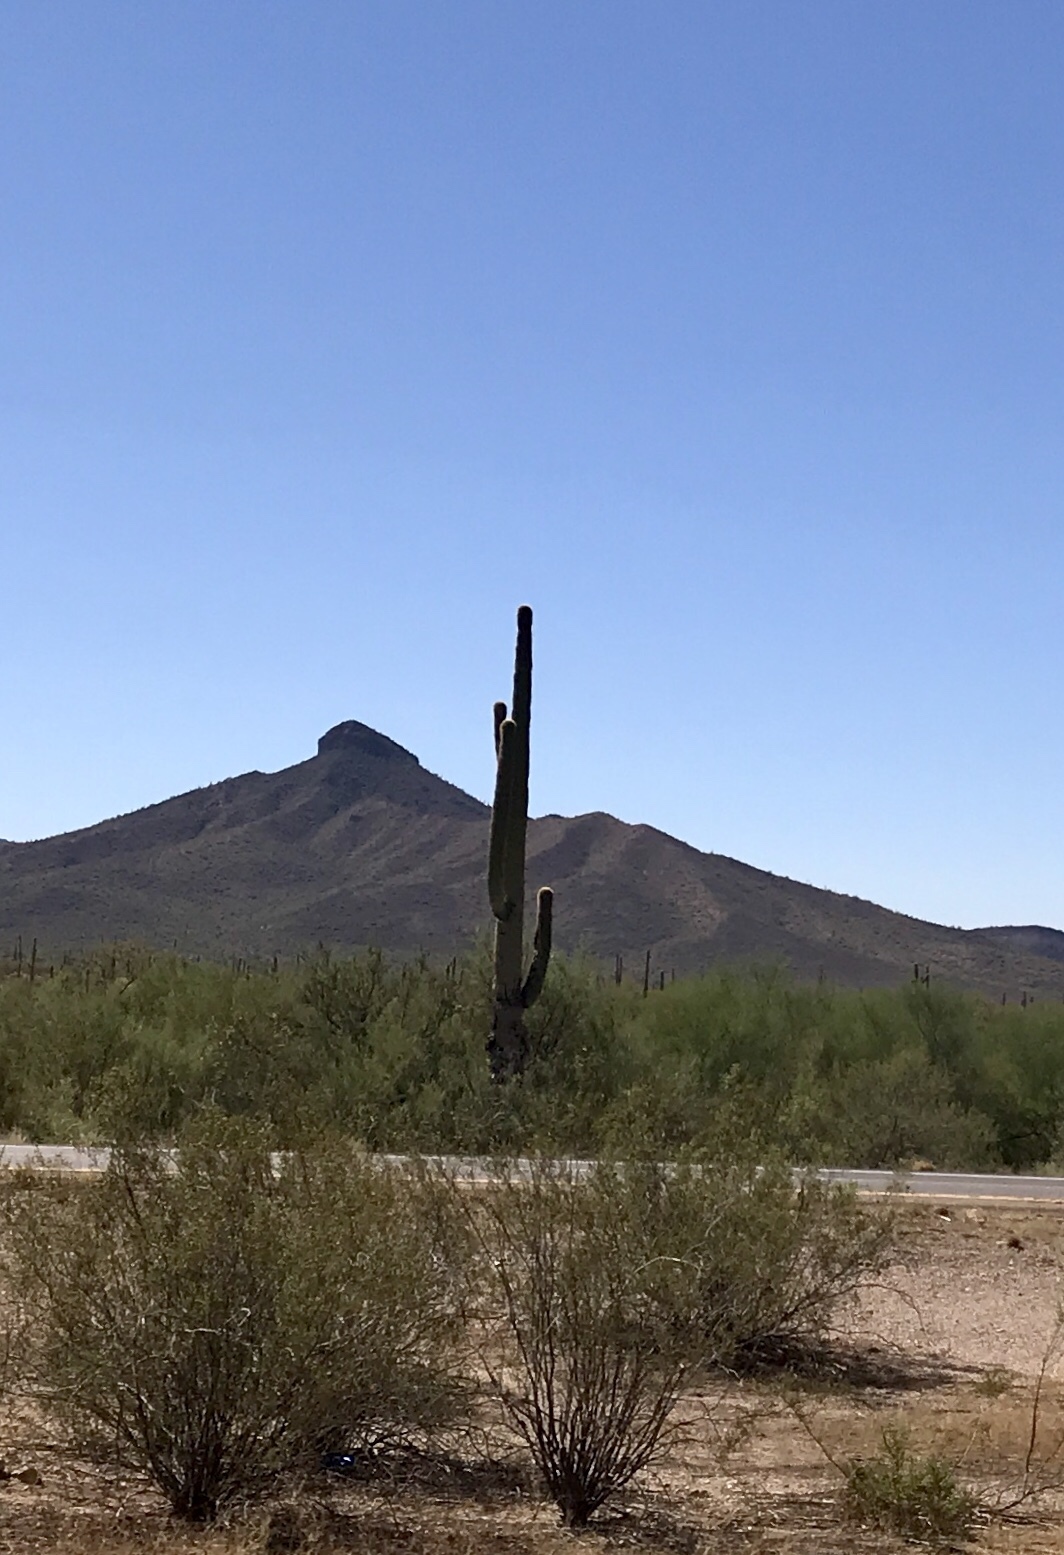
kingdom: Plantae
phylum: Tracheophyta
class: Magnoliopsida
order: Caryophyllales
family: Cactaceae
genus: Carnegiea
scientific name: Carnegiea gigantea
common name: Saguaro
